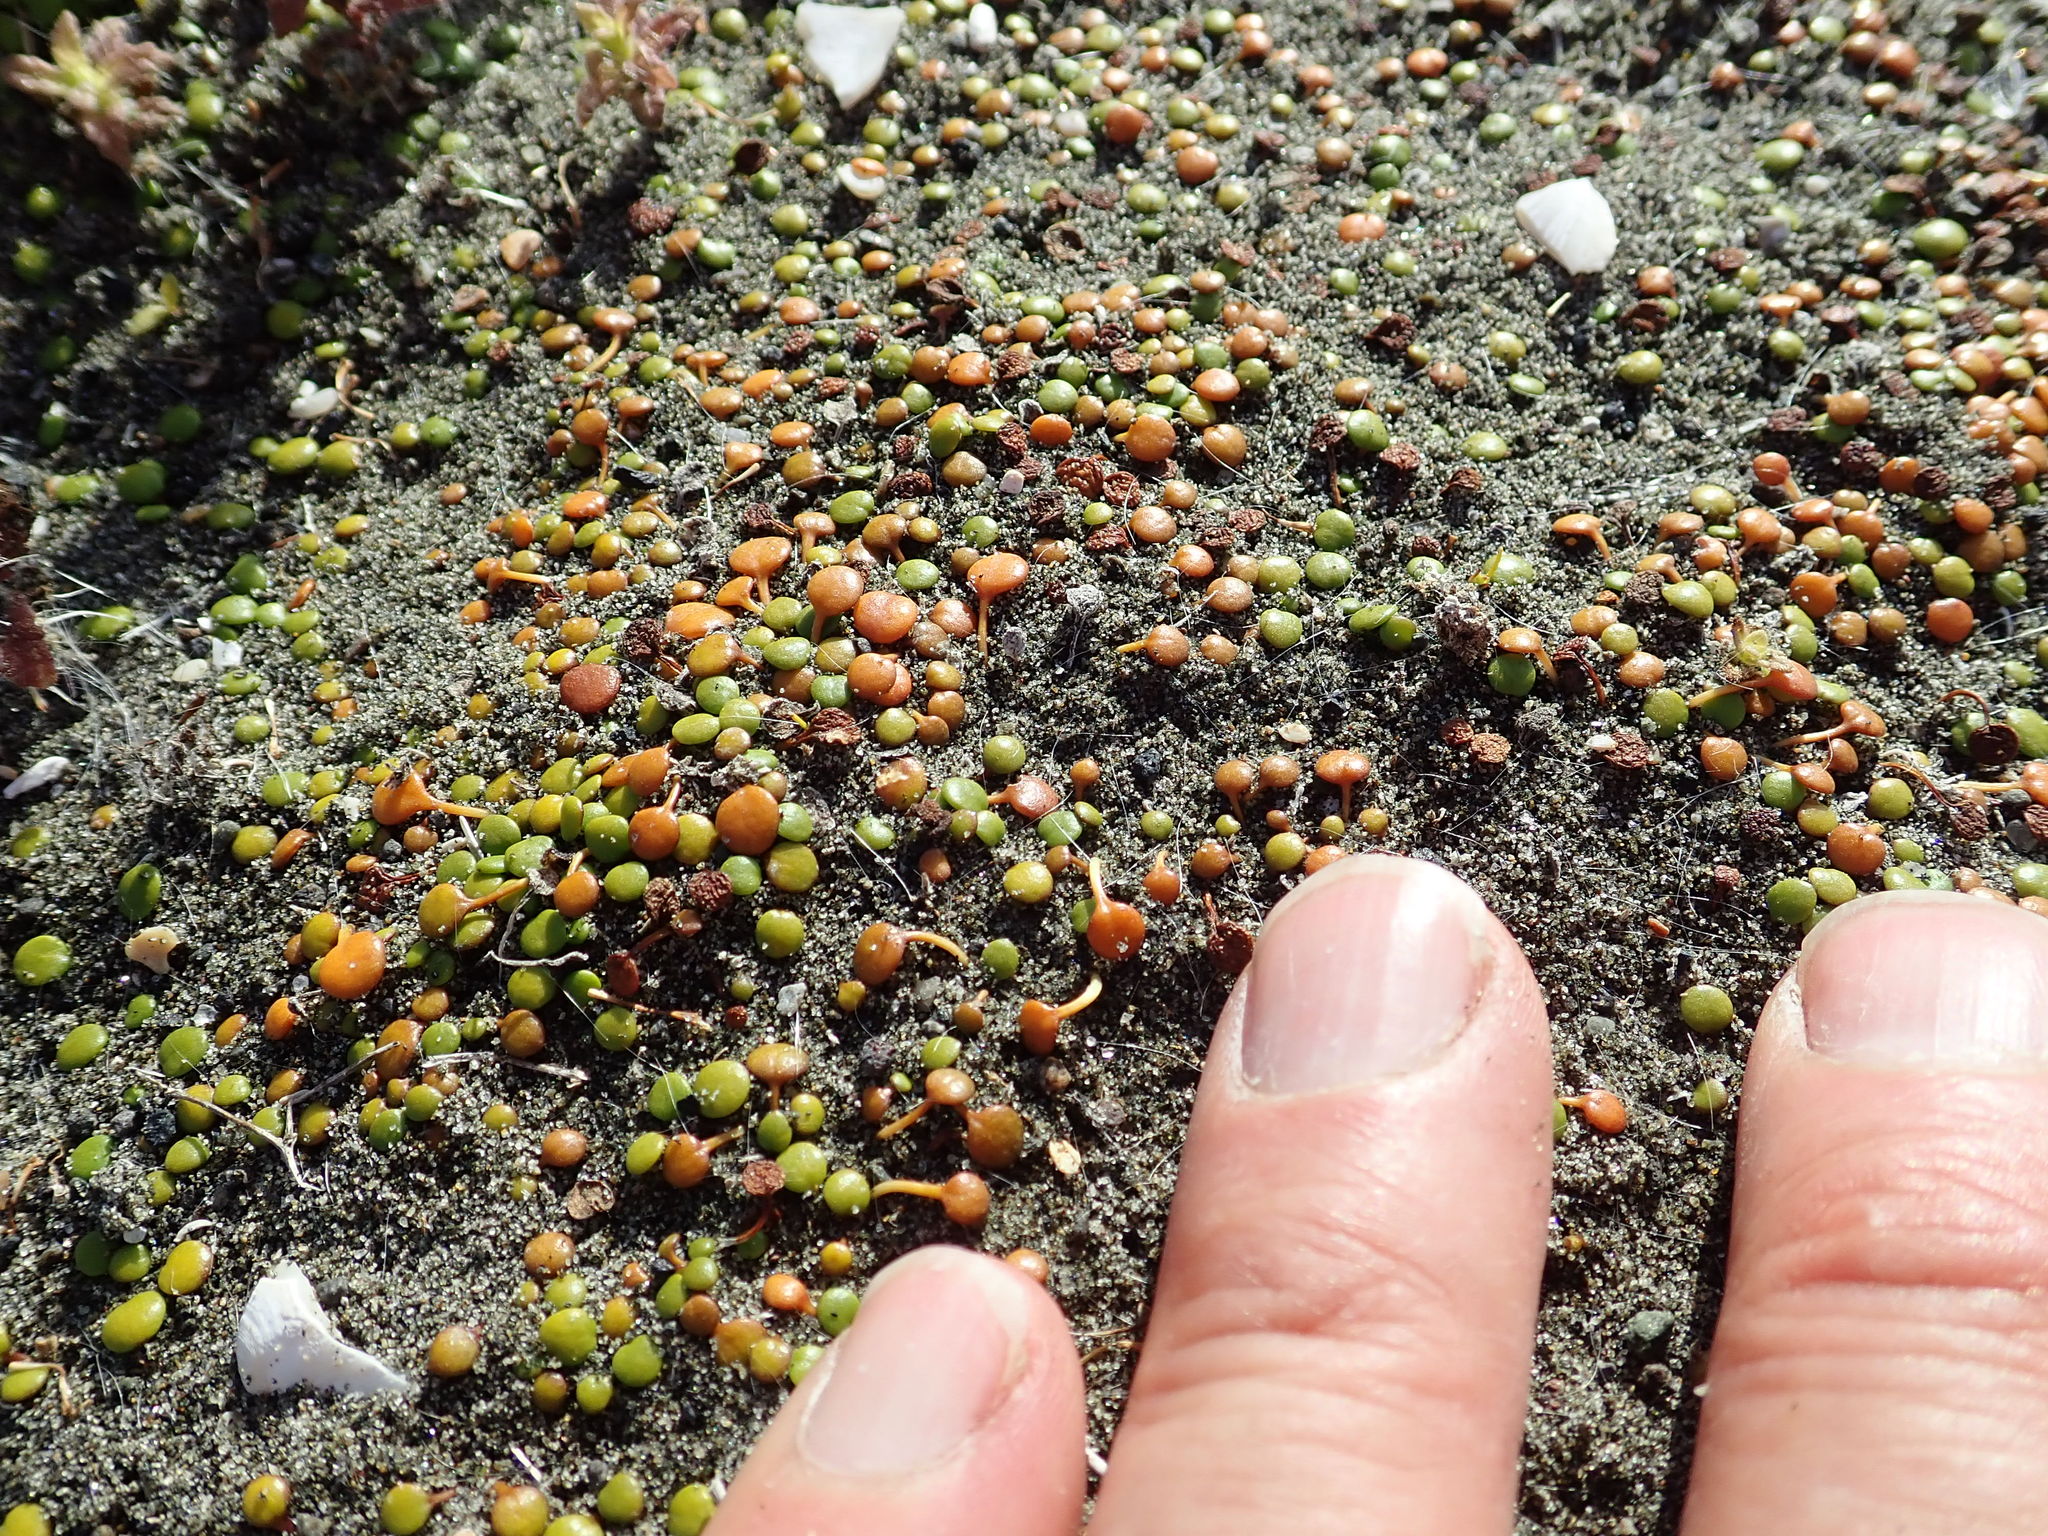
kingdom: Plantae
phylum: Tracheophyta
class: Magnoliopsida
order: Asterales
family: Goodeniaceae
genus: Goodenia
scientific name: Goodenia heenanii
